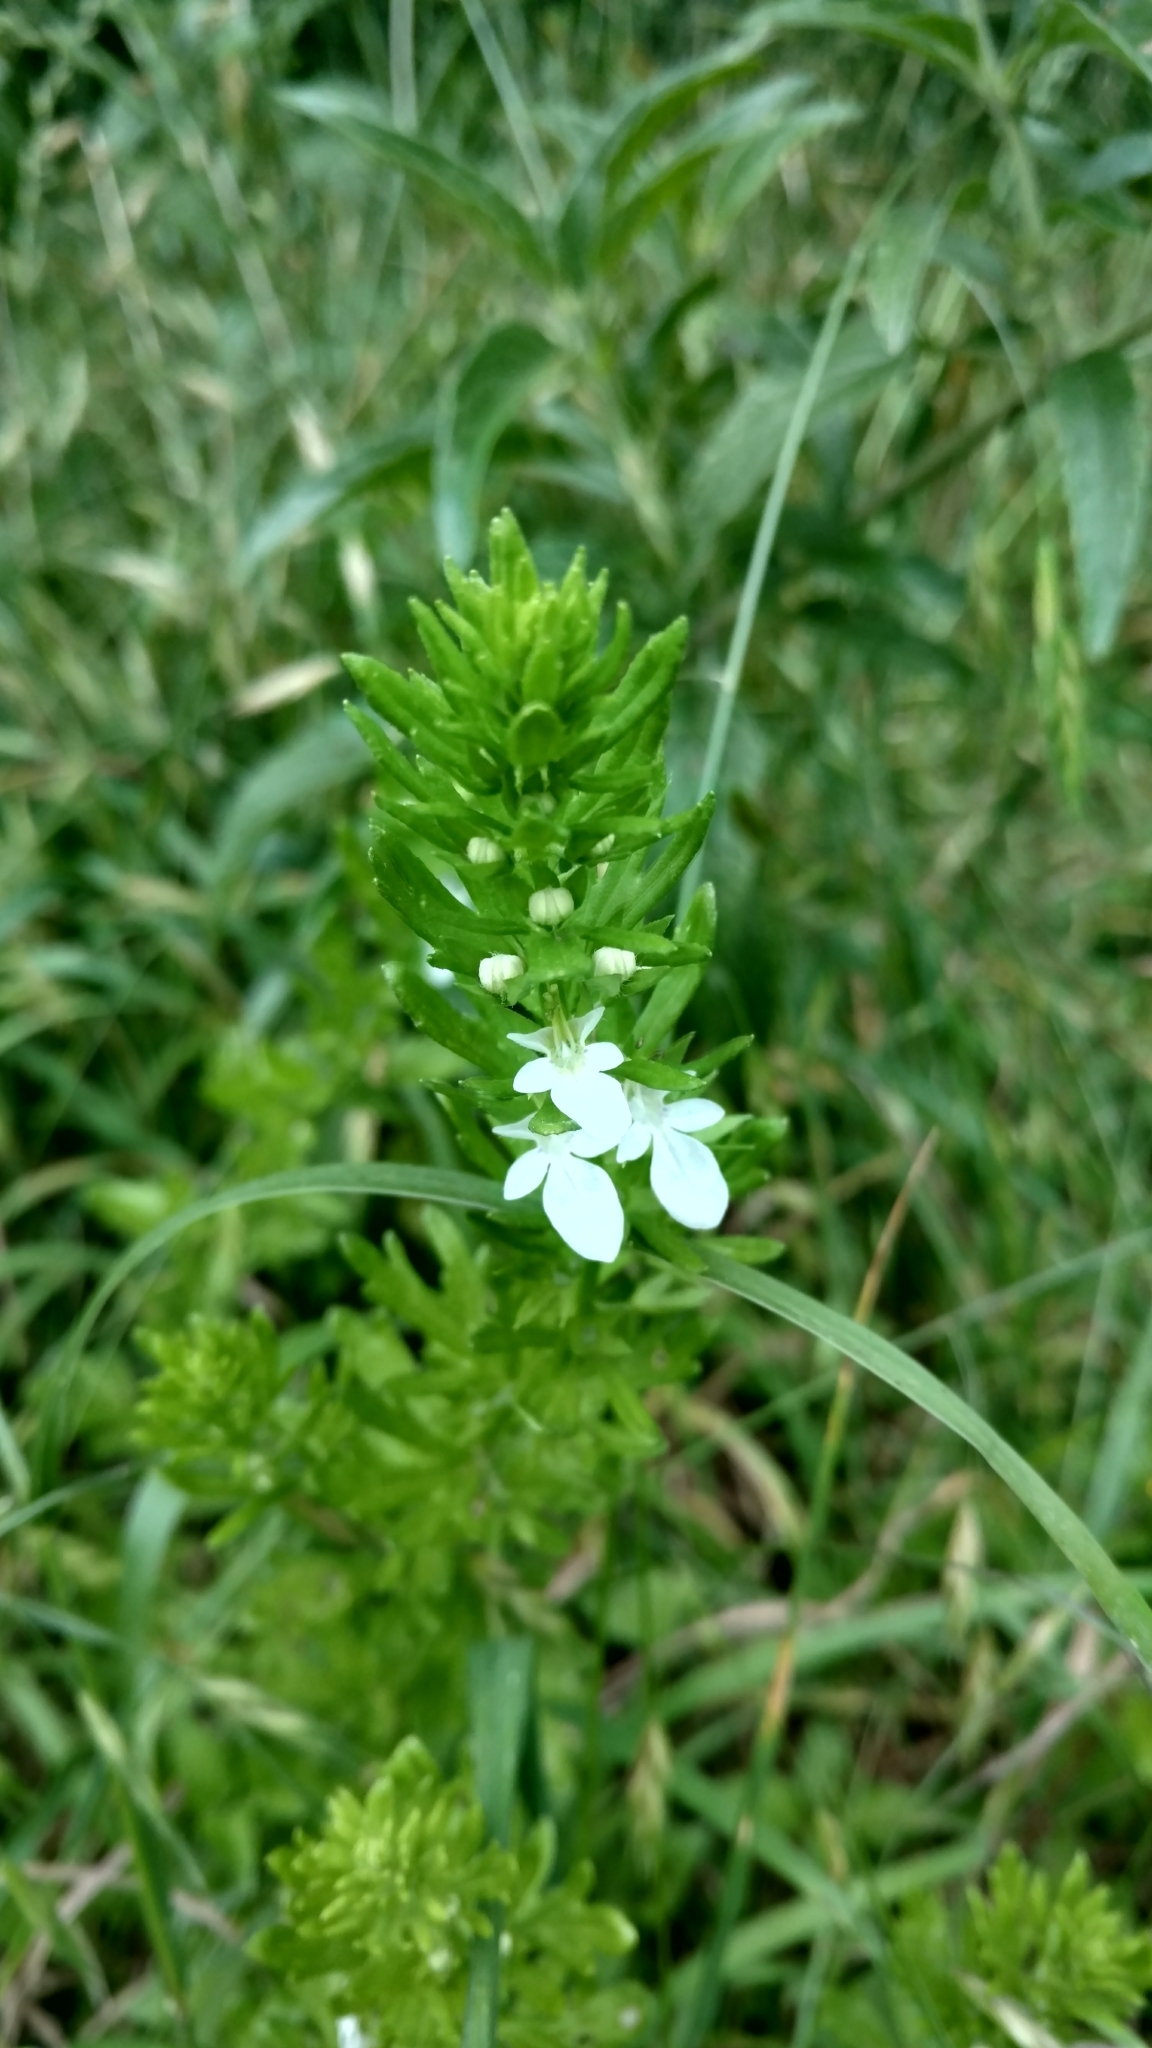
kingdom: Plantae
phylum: Tracheophyta
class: Magnoliopsida
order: Lamiales
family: Lamiaceae
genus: Teucrium
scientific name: Teucrium cubense
